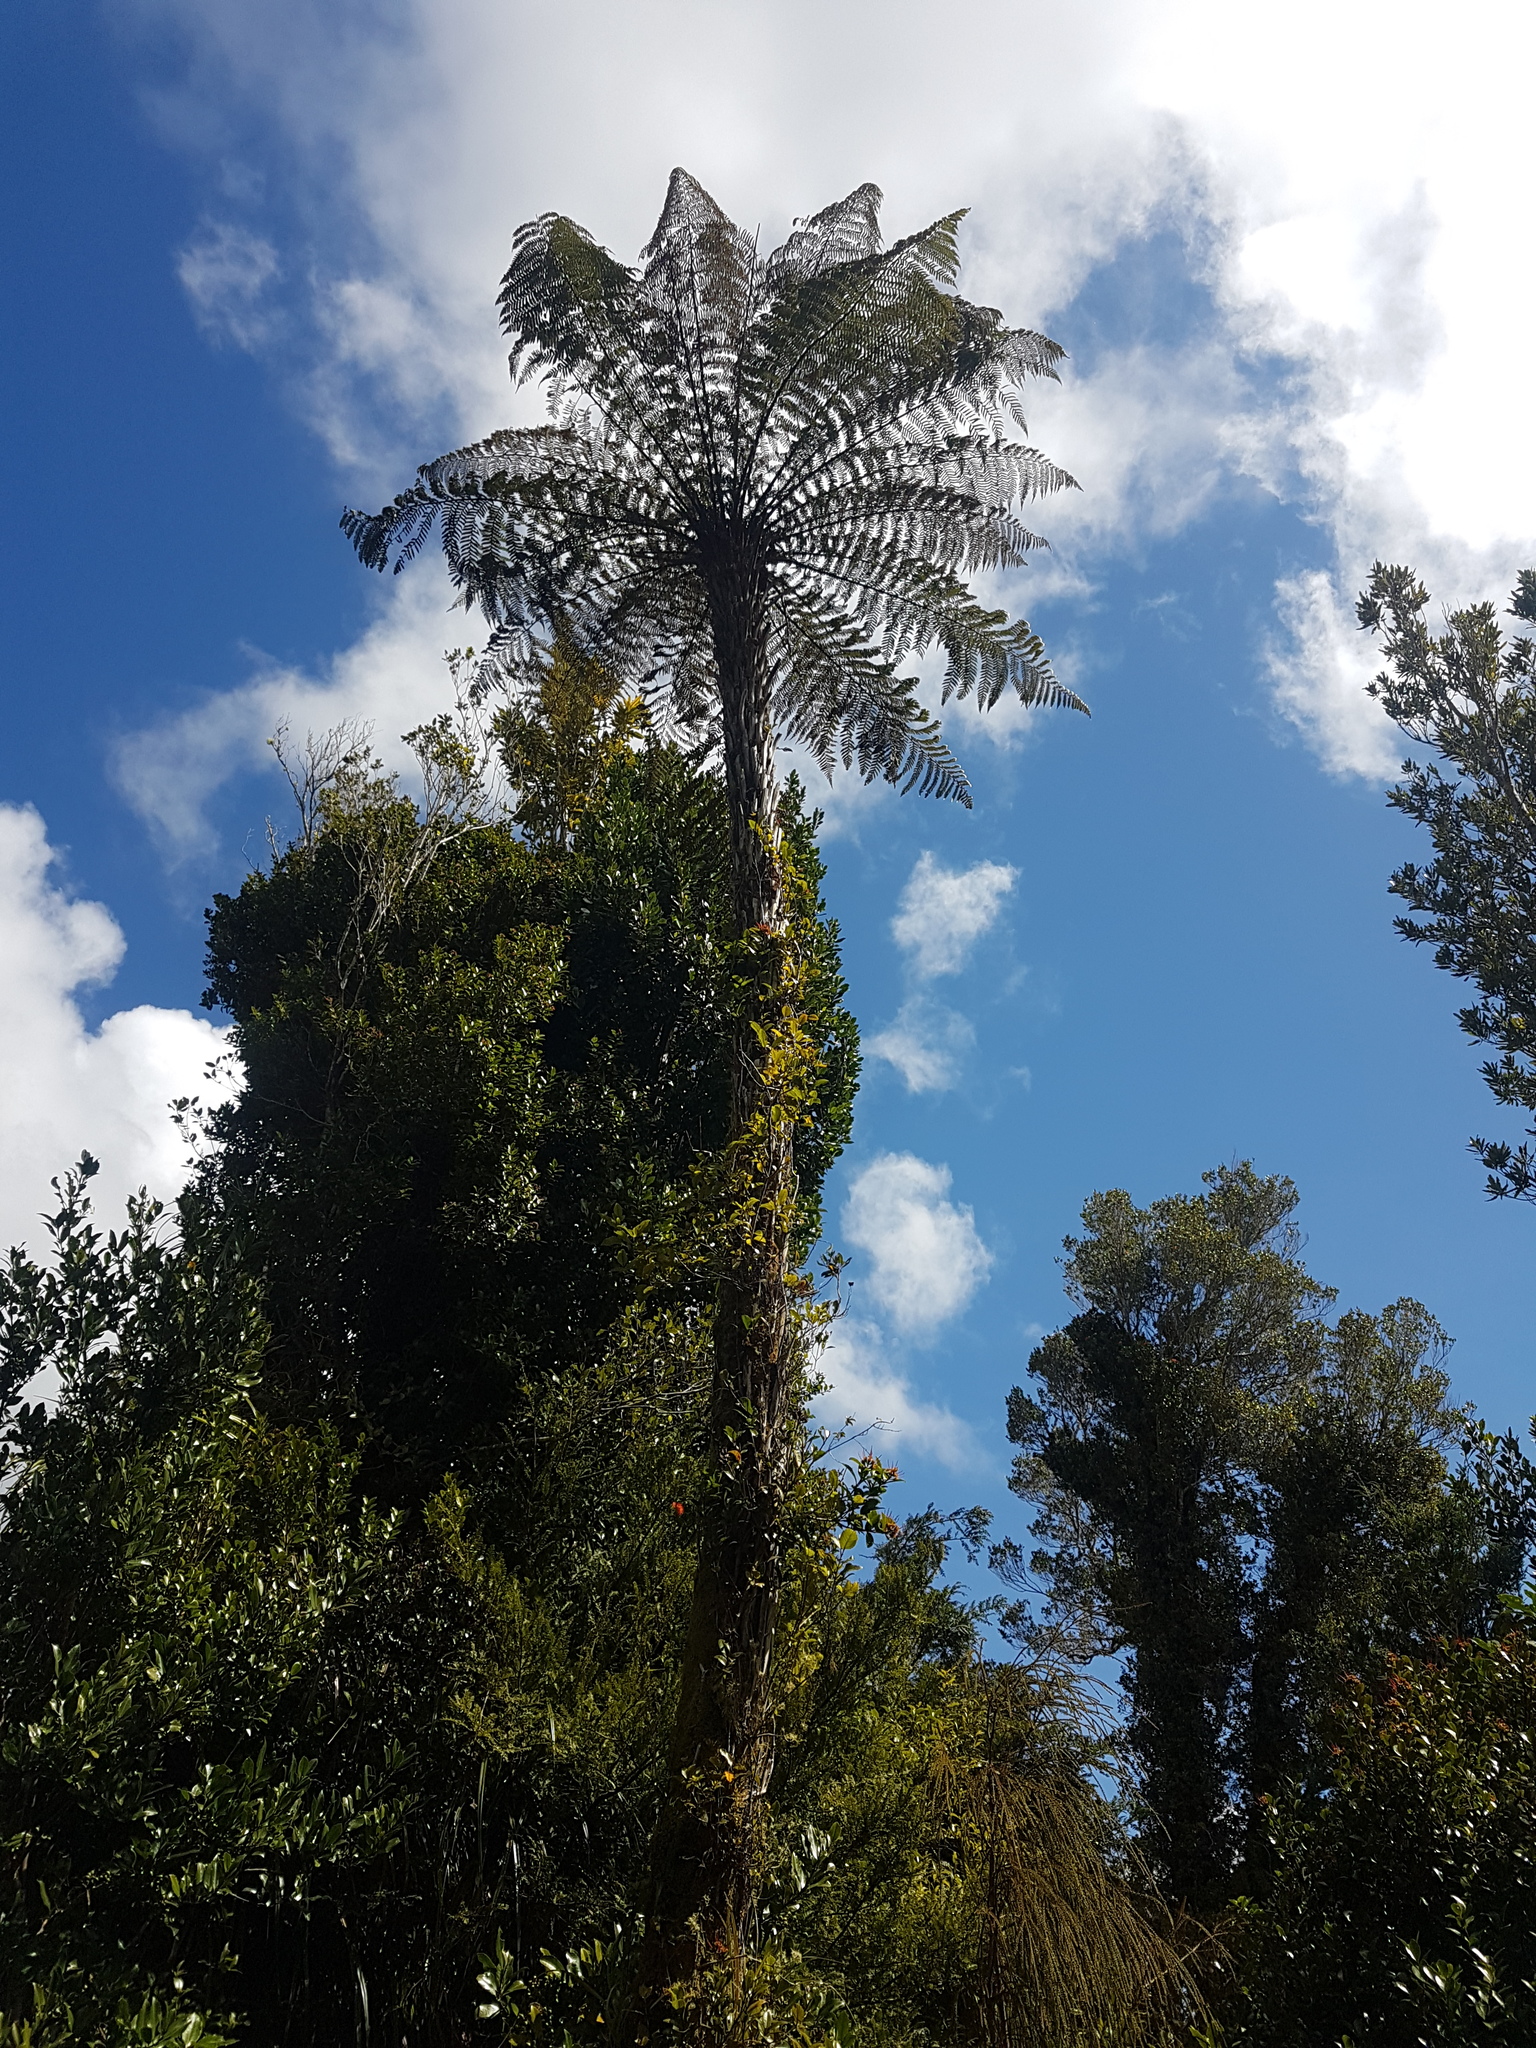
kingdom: Plantae
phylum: Tracheophyta
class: Polypodiopsida
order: Cyatheales
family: Dicksoniaceae
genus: Dicksonia
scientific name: Dicksonia squarrosa
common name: Hard treefern
